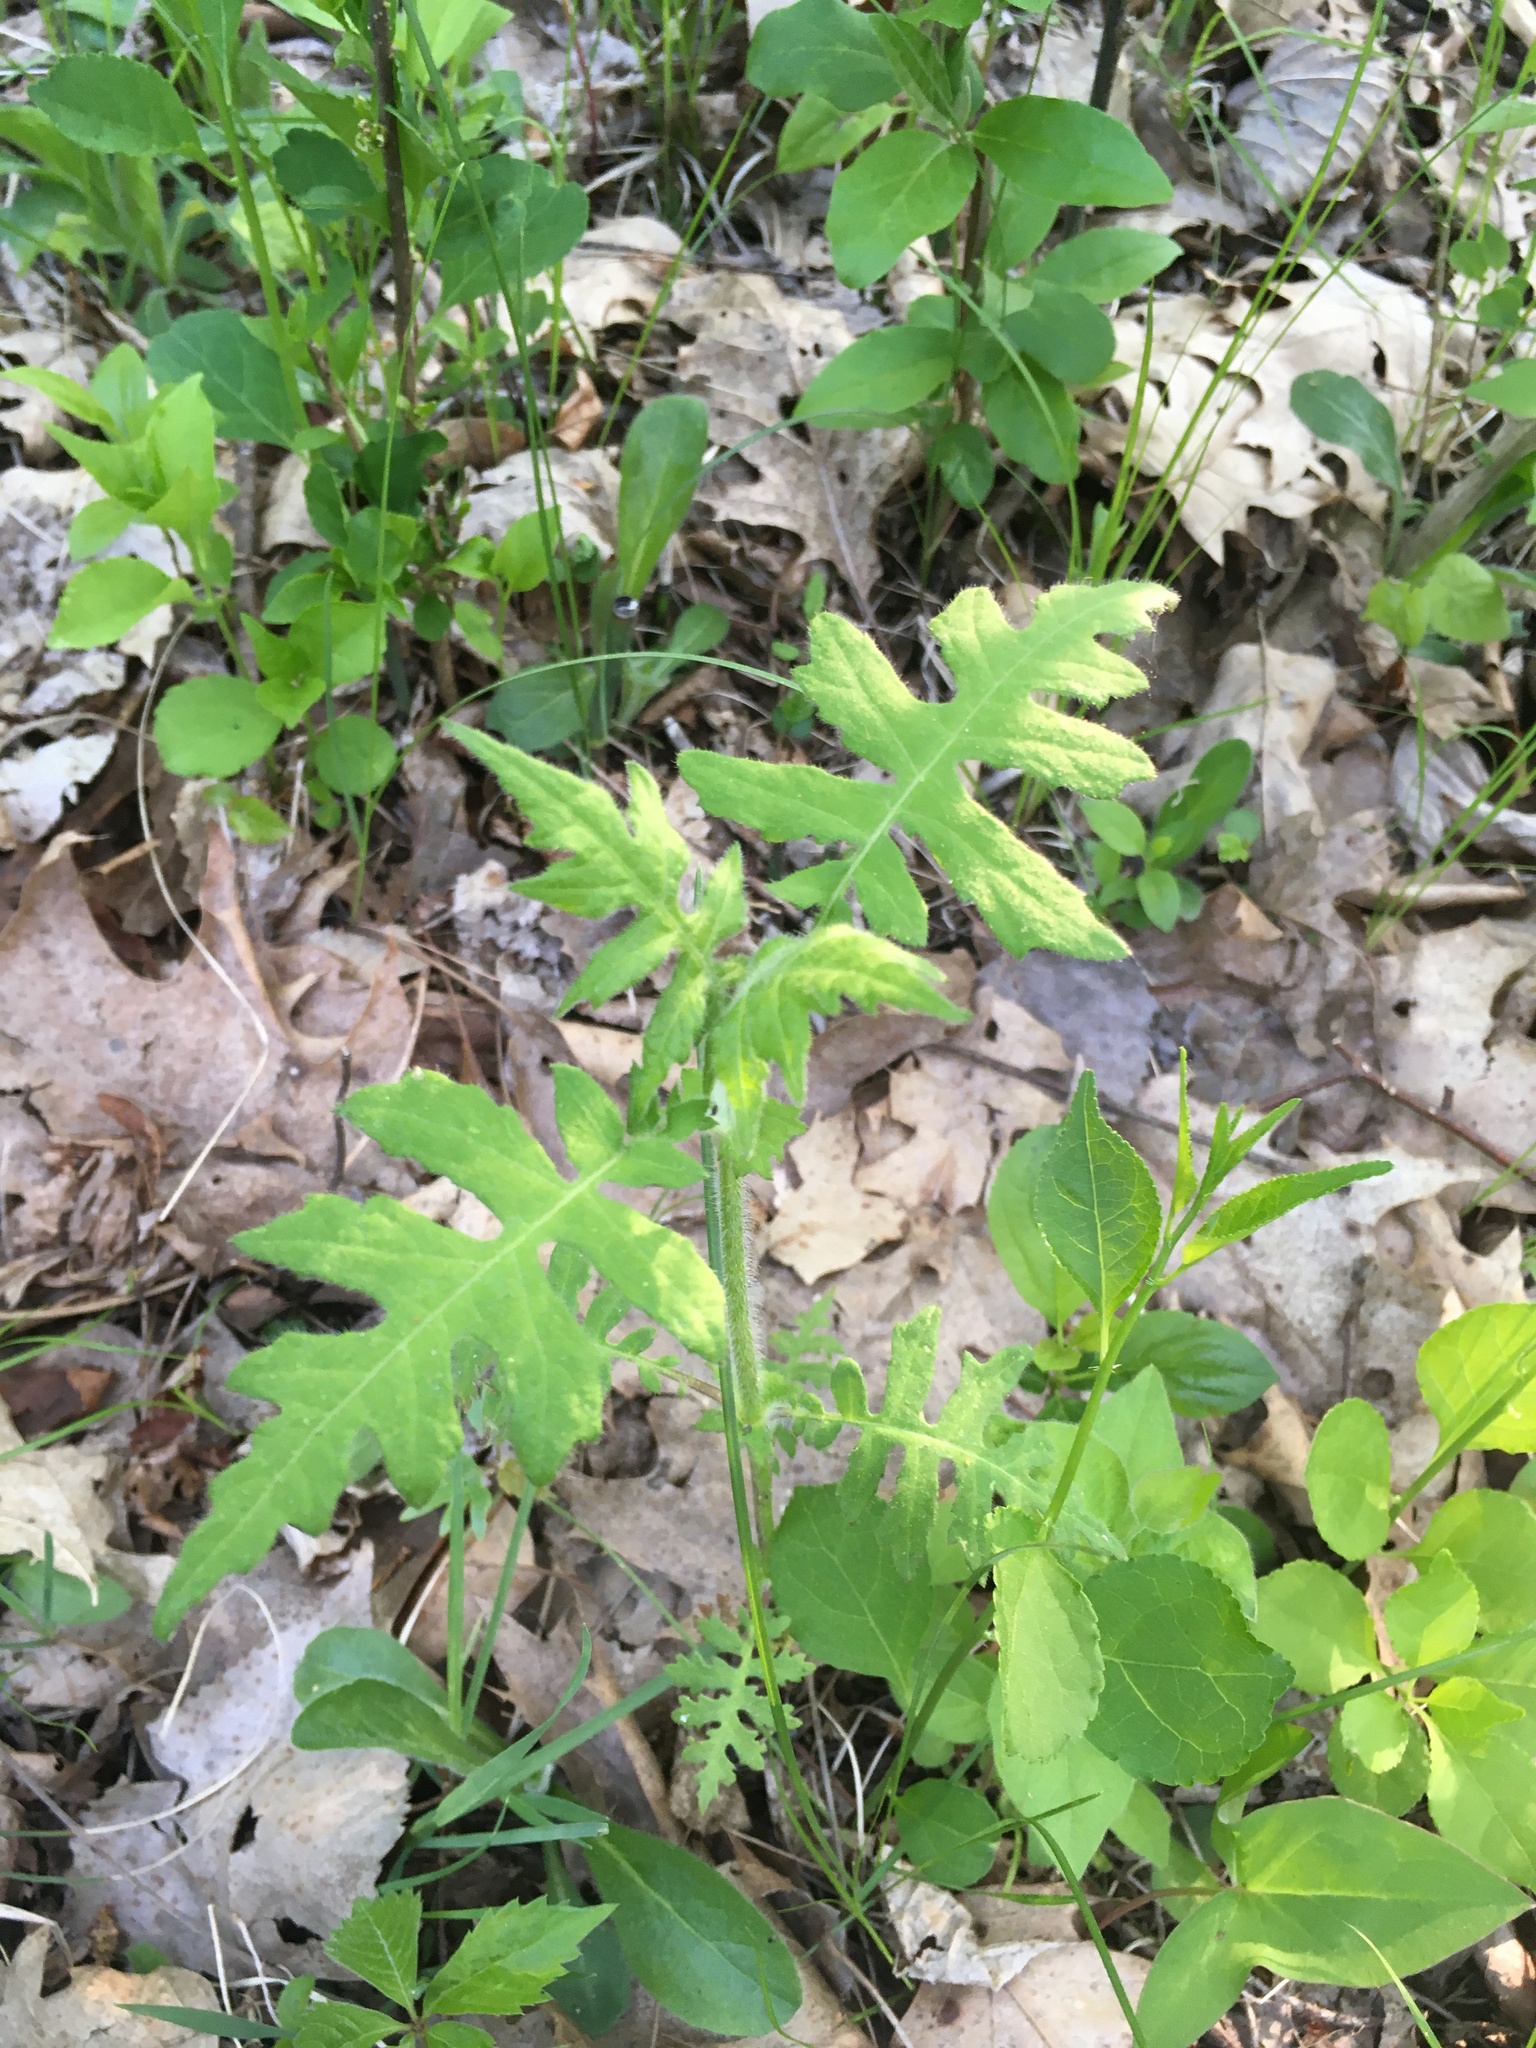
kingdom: Plantae
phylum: Tracheophyta
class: Magnoliopsida
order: Asterales
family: Asteraceae
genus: Polymnia
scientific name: Polymnia canadensis
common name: Pale-flowered leafcup
